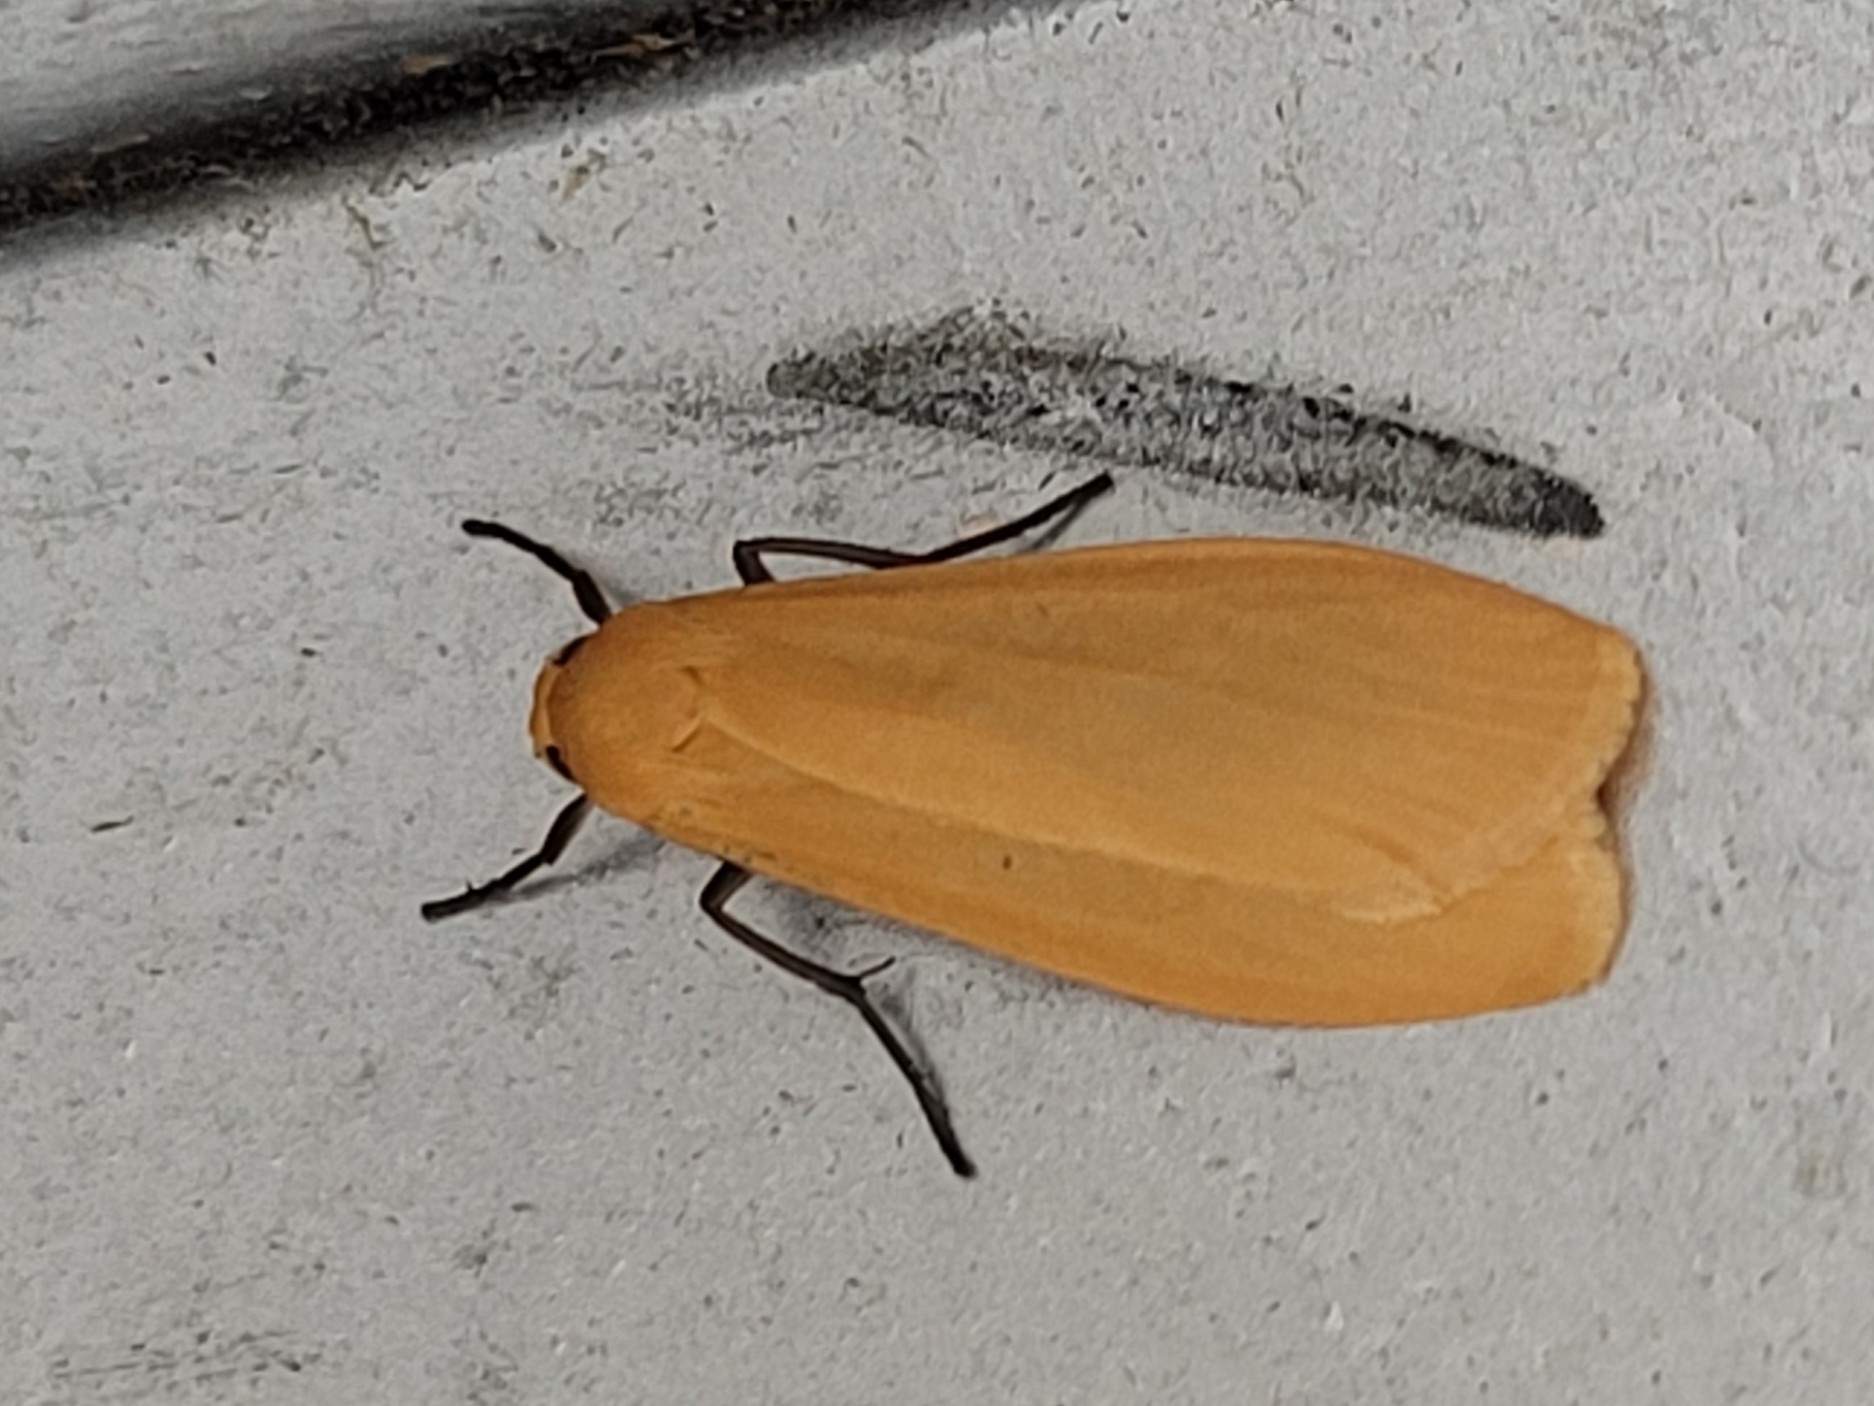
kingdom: Animalia
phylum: Arthropoda
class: Insecta
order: Lepidoptera
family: Erebidae
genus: Wittia
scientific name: Wittia sororcula
